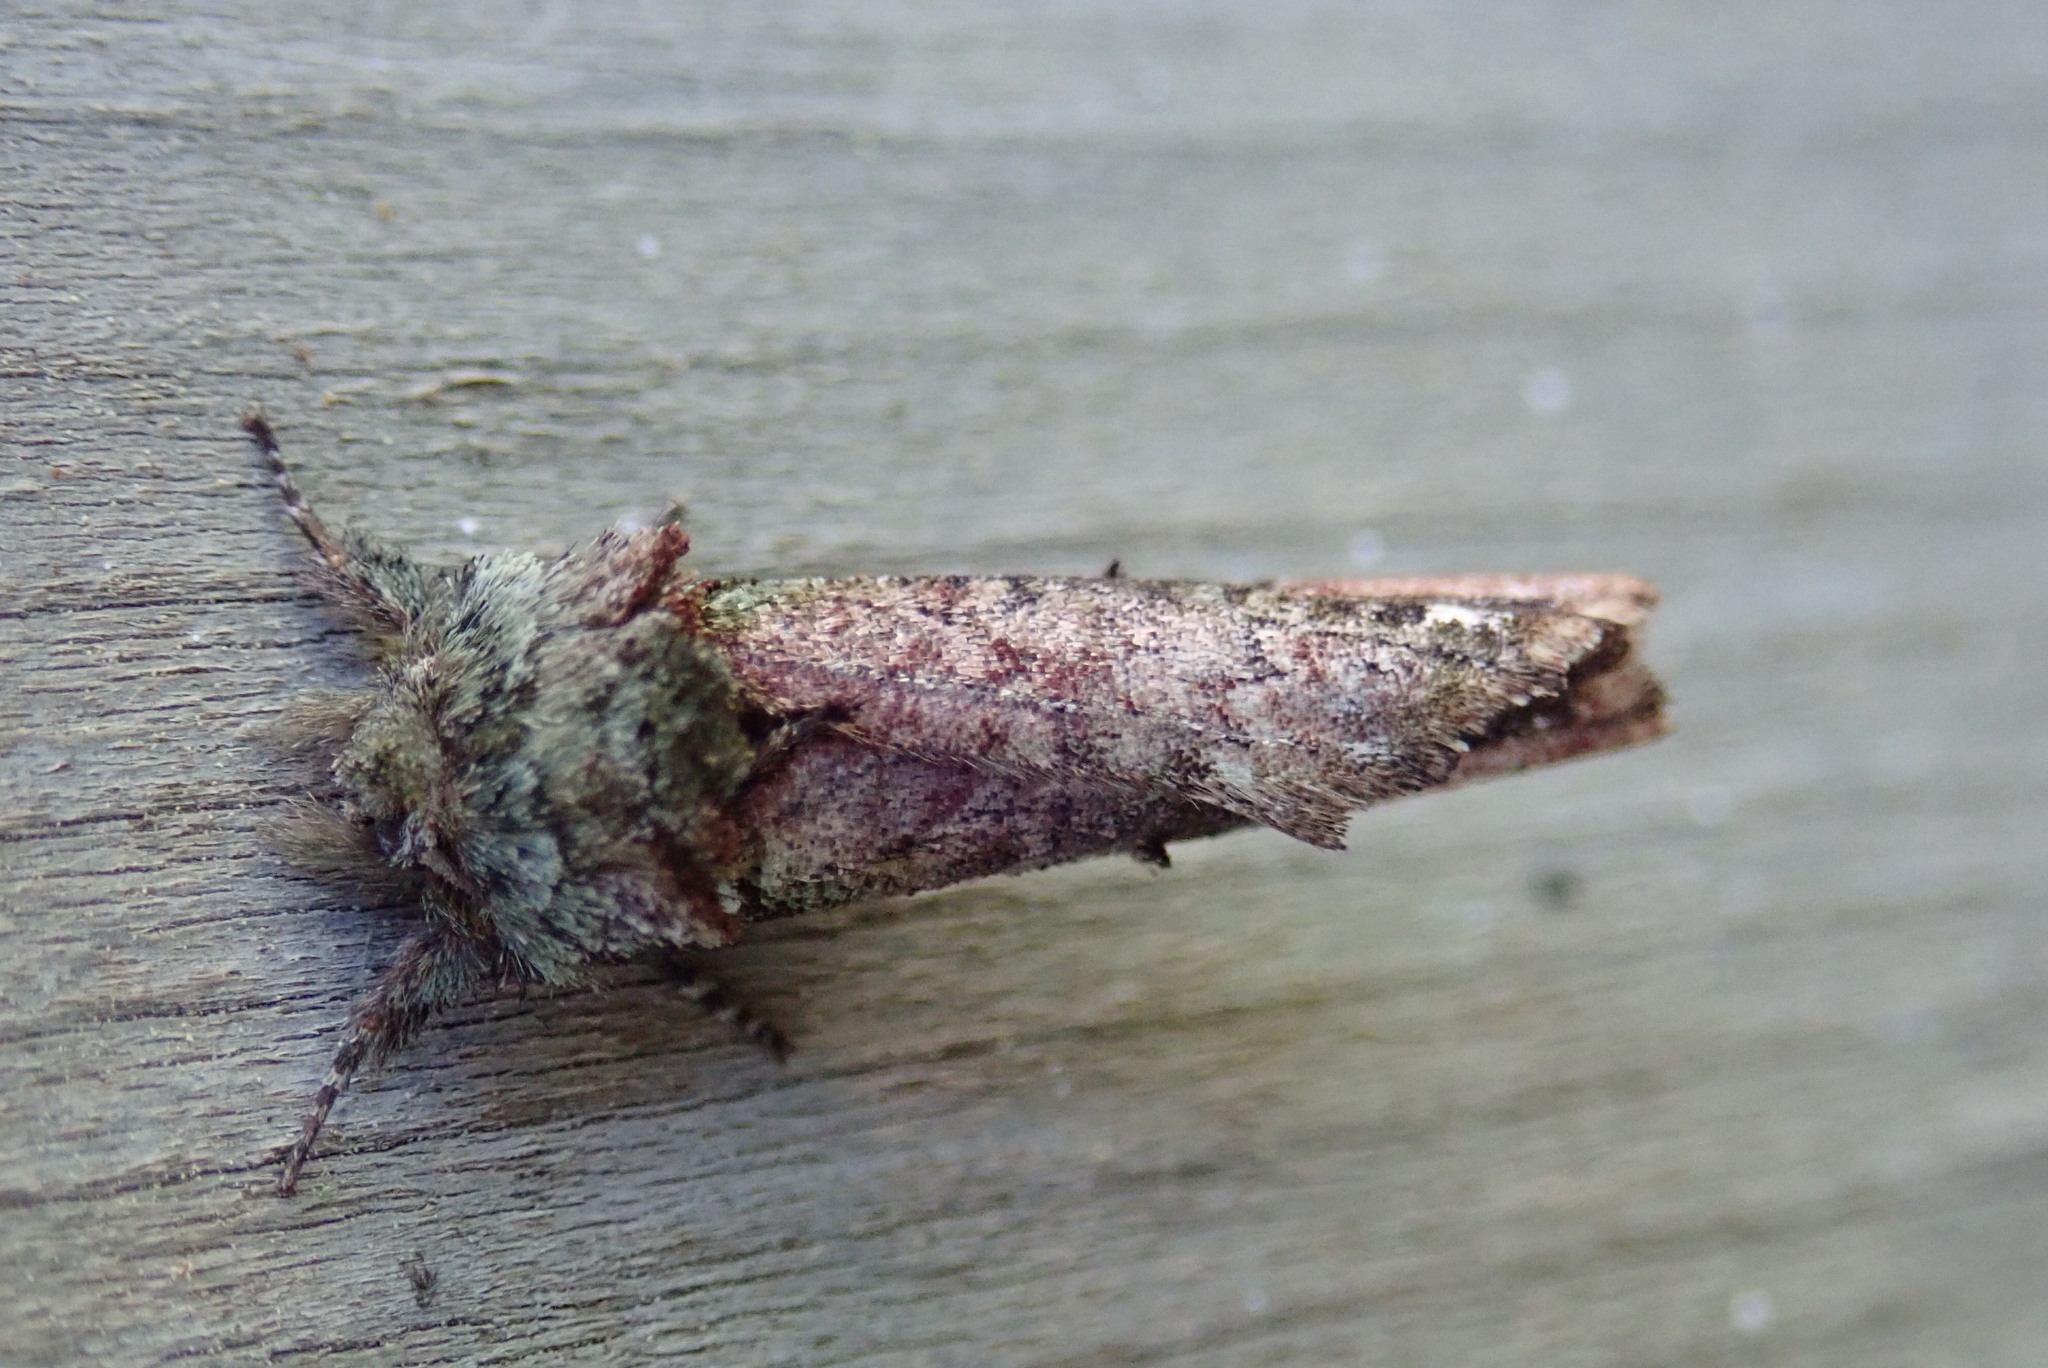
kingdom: Animalia
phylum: Arthropoda
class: Insecta
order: Lepidoptera
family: Notodontidae
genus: Schizura
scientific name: Schizura
